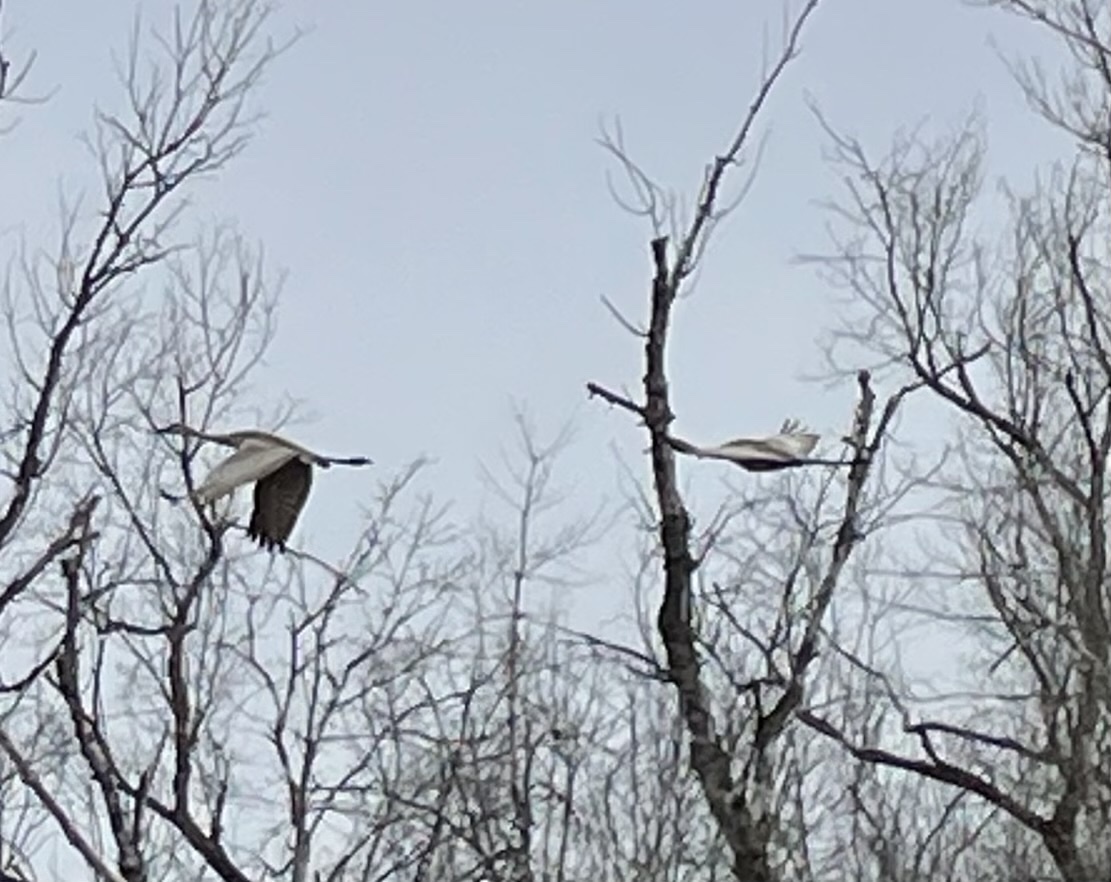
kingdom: Animalia
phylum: Chordata
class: Aves
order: Gruiformes
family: Gruidae
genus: Grus
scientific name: Grus canadensis
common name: Sandhill crane
